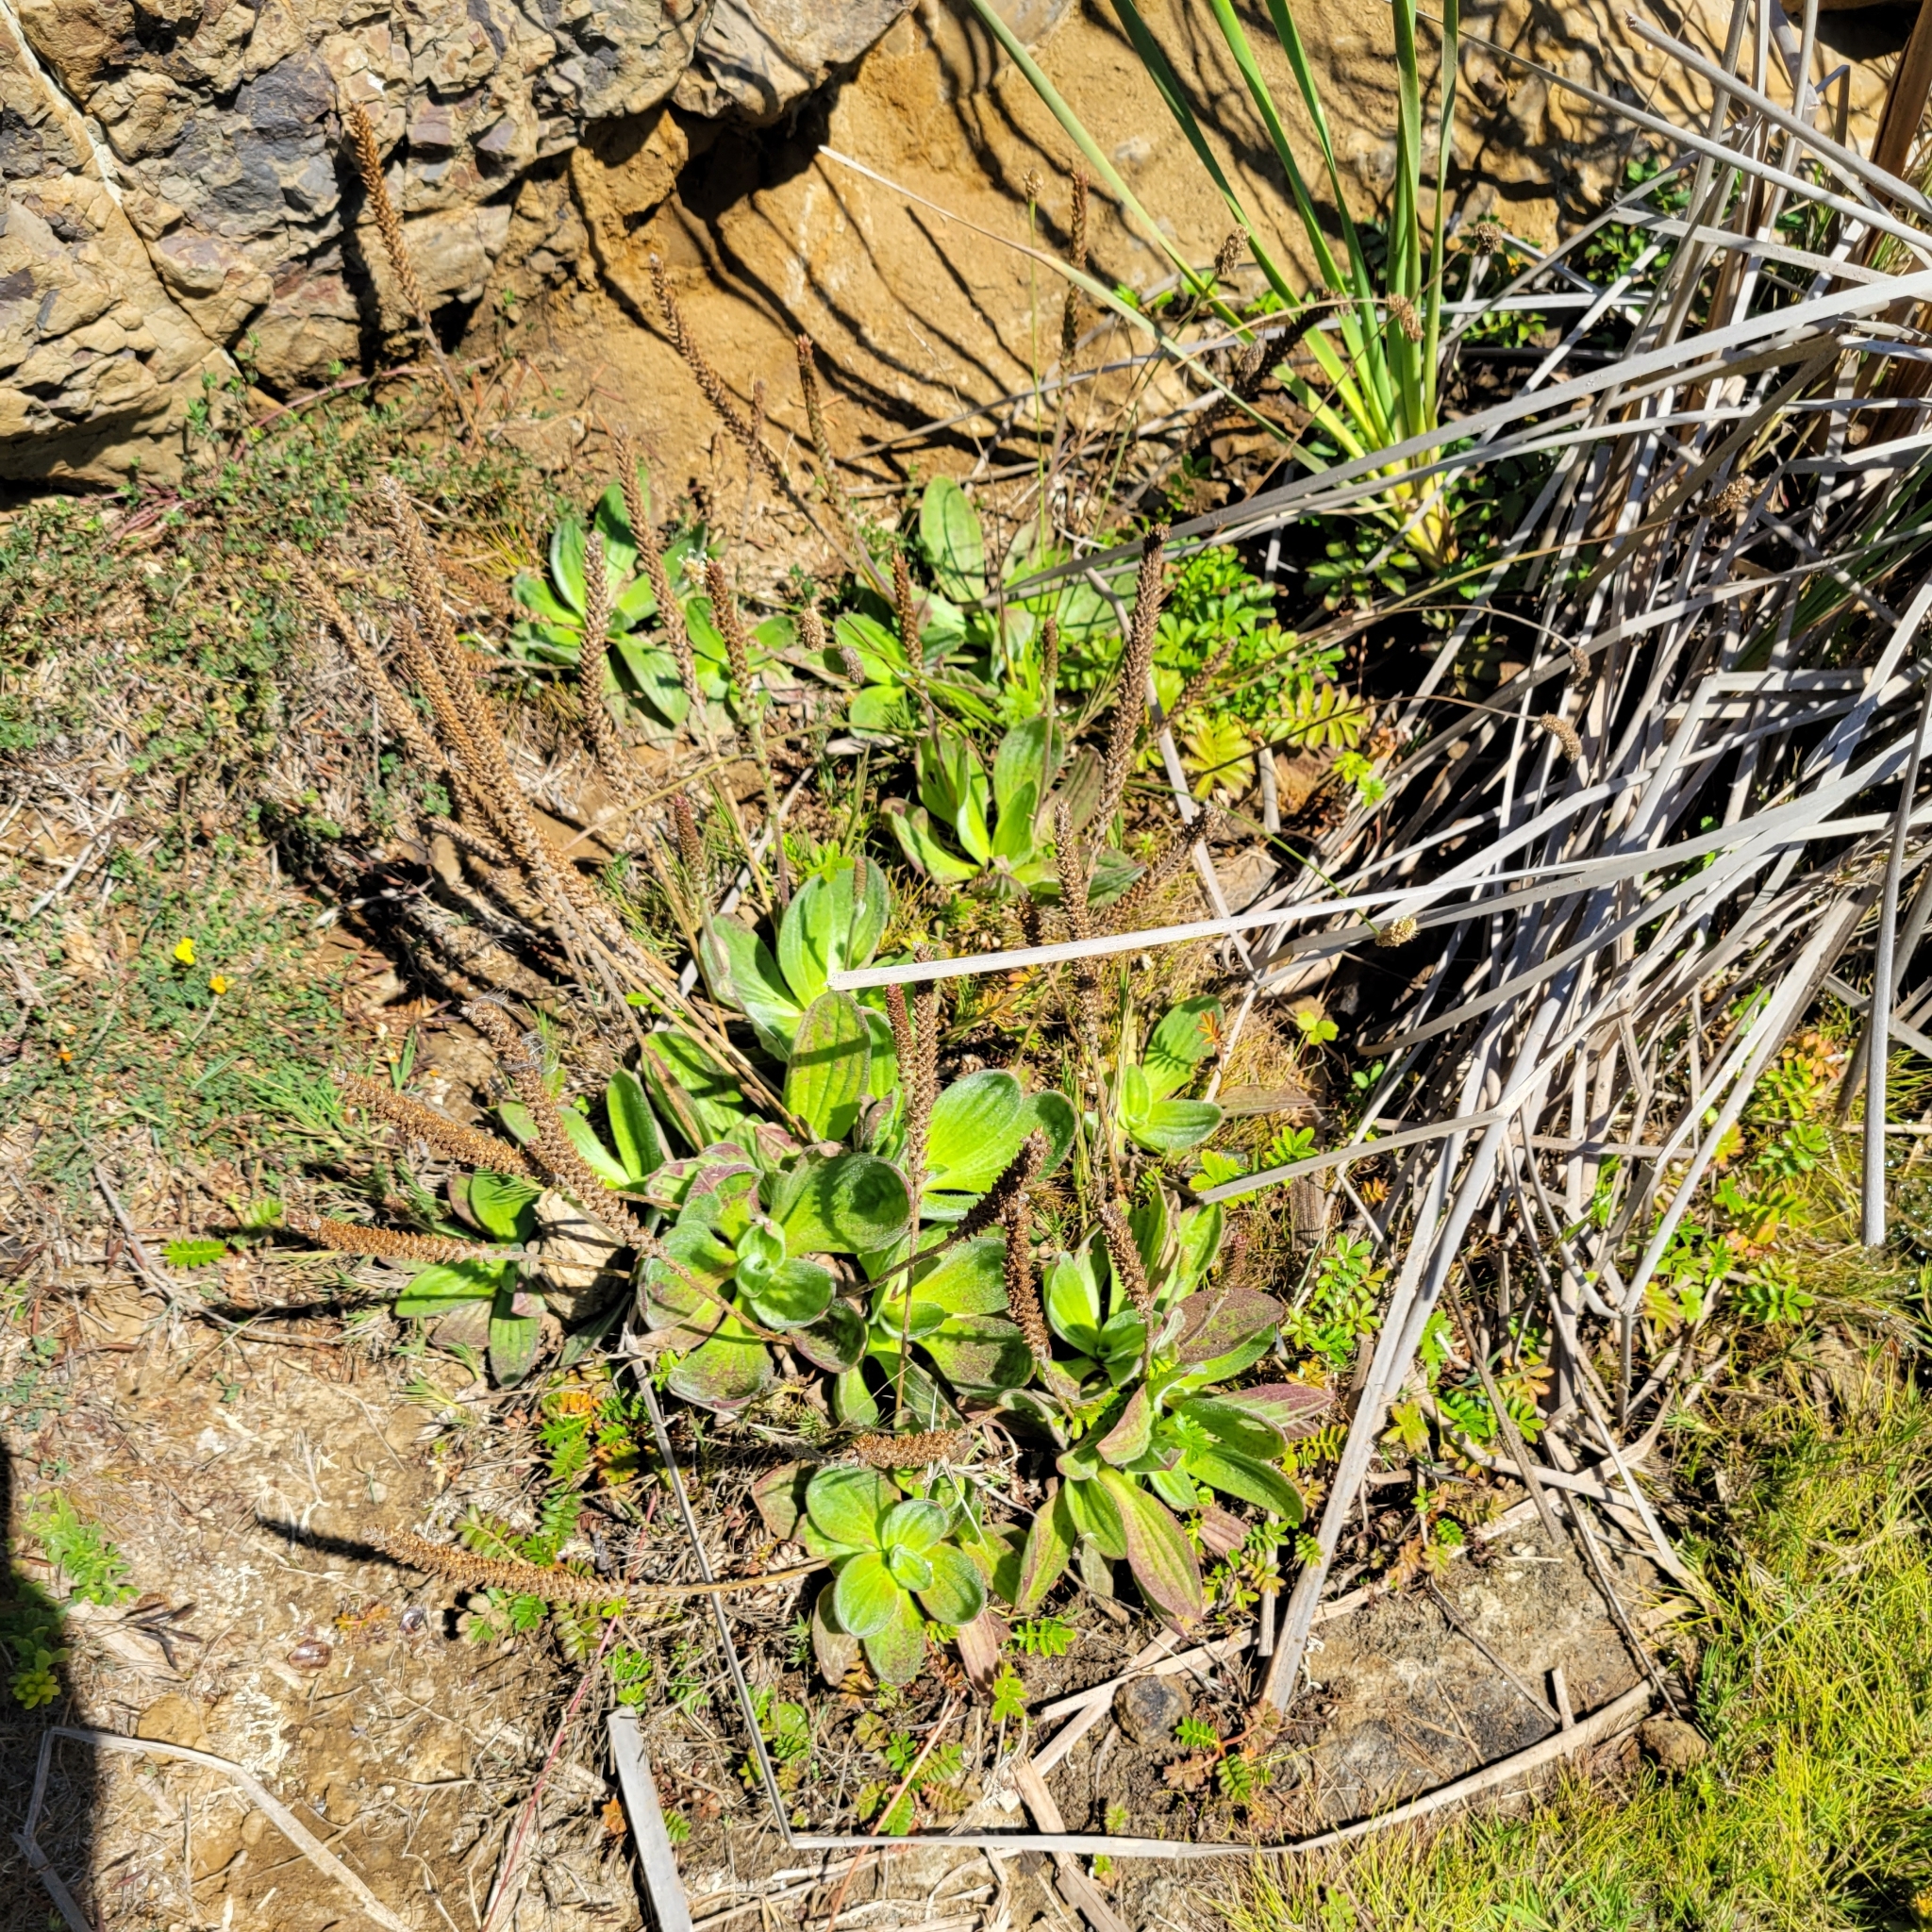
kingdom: Plantae
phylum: Tracheophyta
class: Magnoliopsida
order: Lamiales
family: Plantaginaceae
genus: Plantago
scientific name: Plantago subnuda
